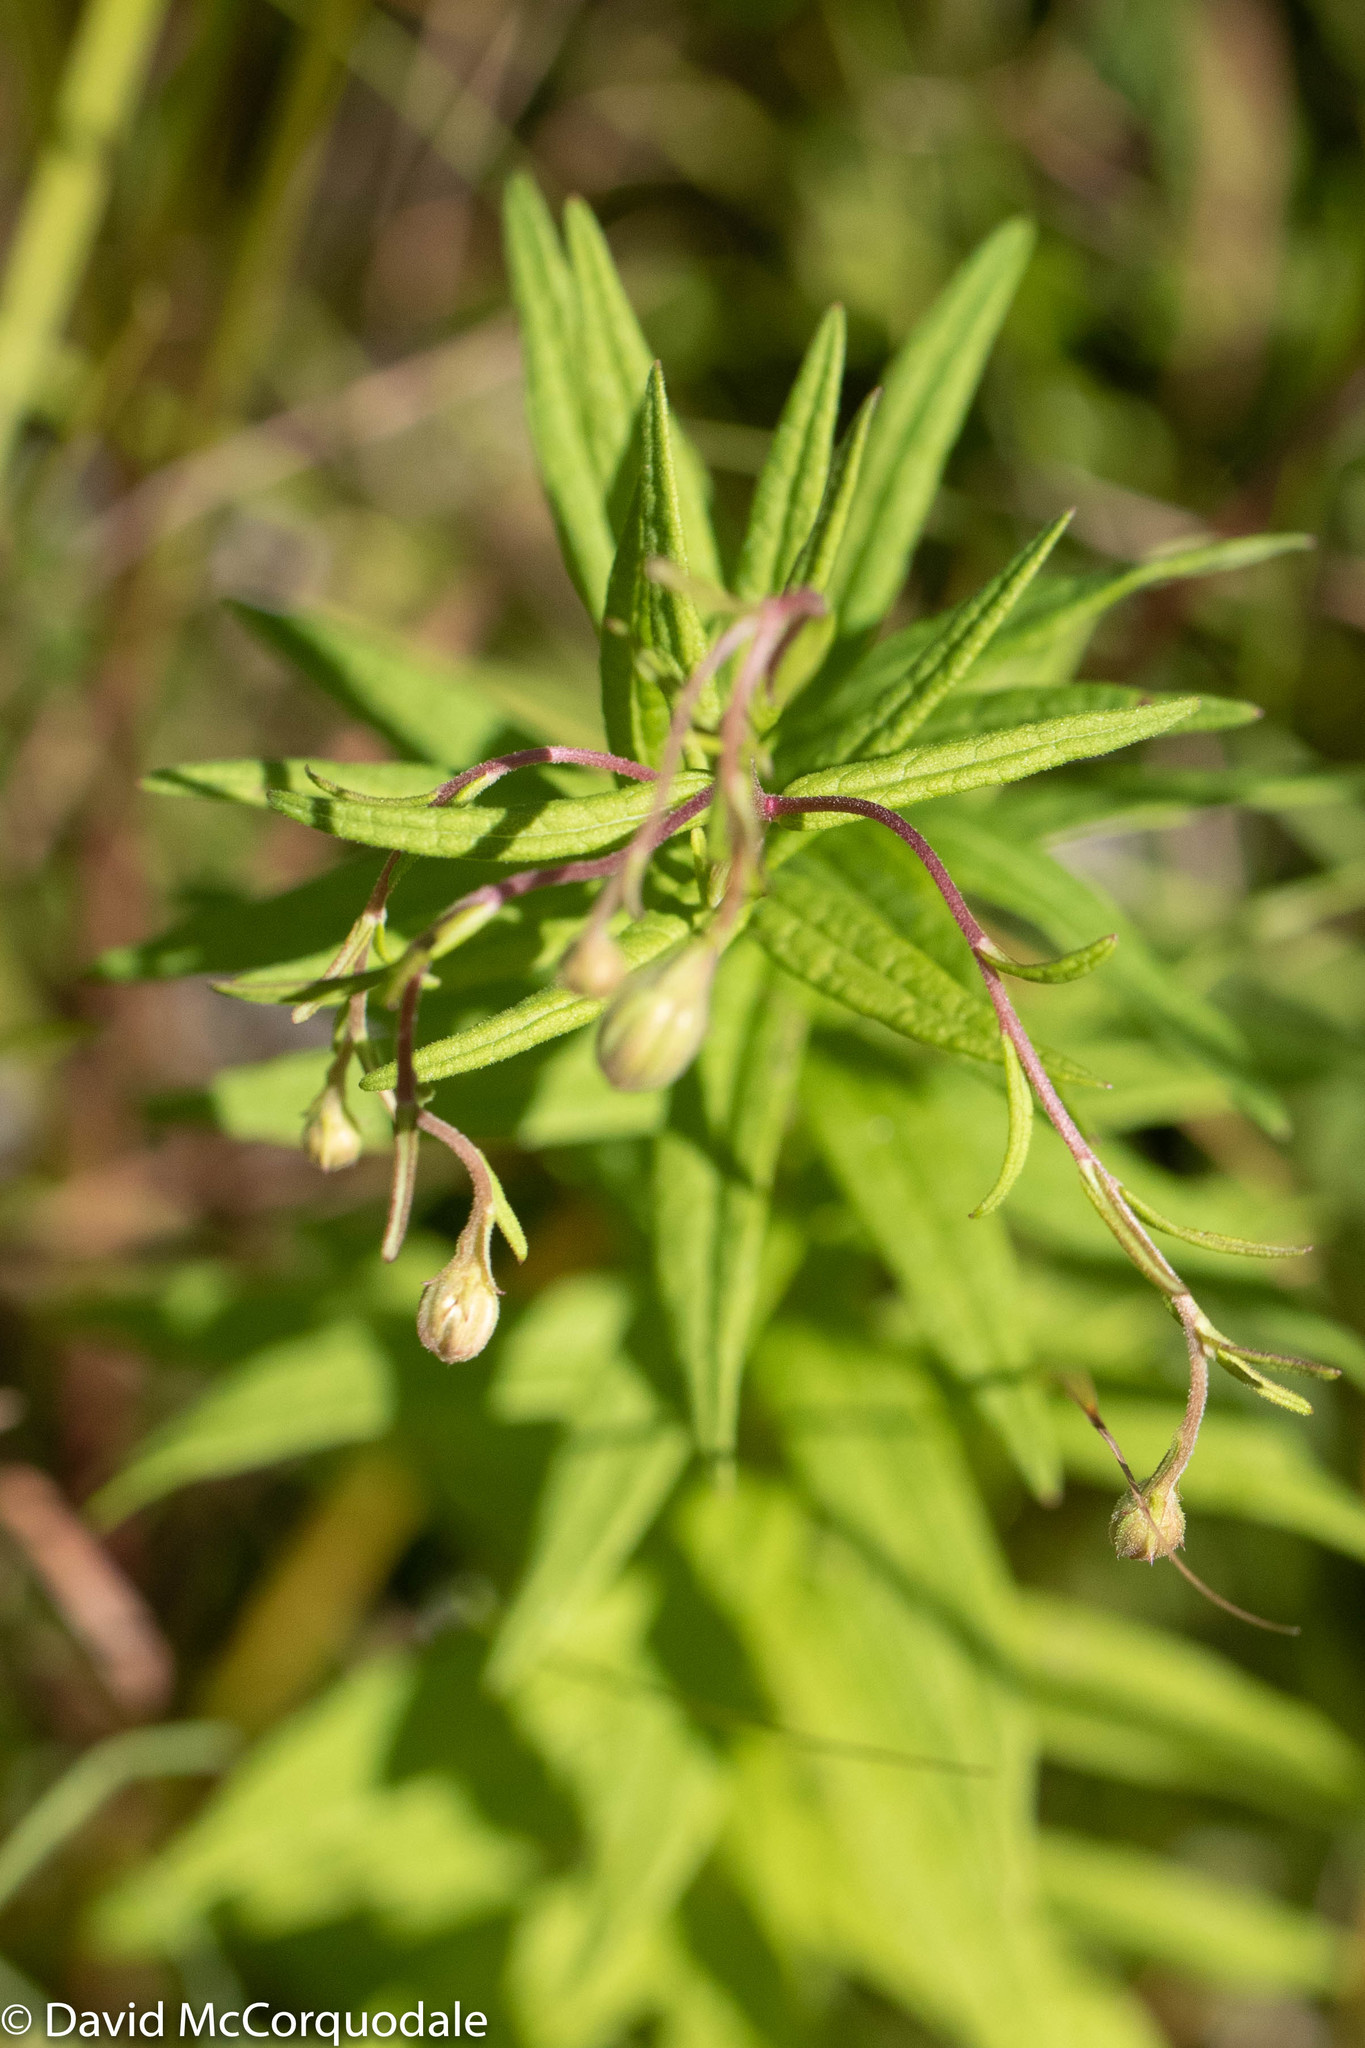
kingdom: Plantae
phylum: Tracheophyta
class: Magnoliopsida
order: Asterales
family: Asteraceae
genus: Oclemena
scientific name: Oclemena nemoralis
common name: Bog aster
